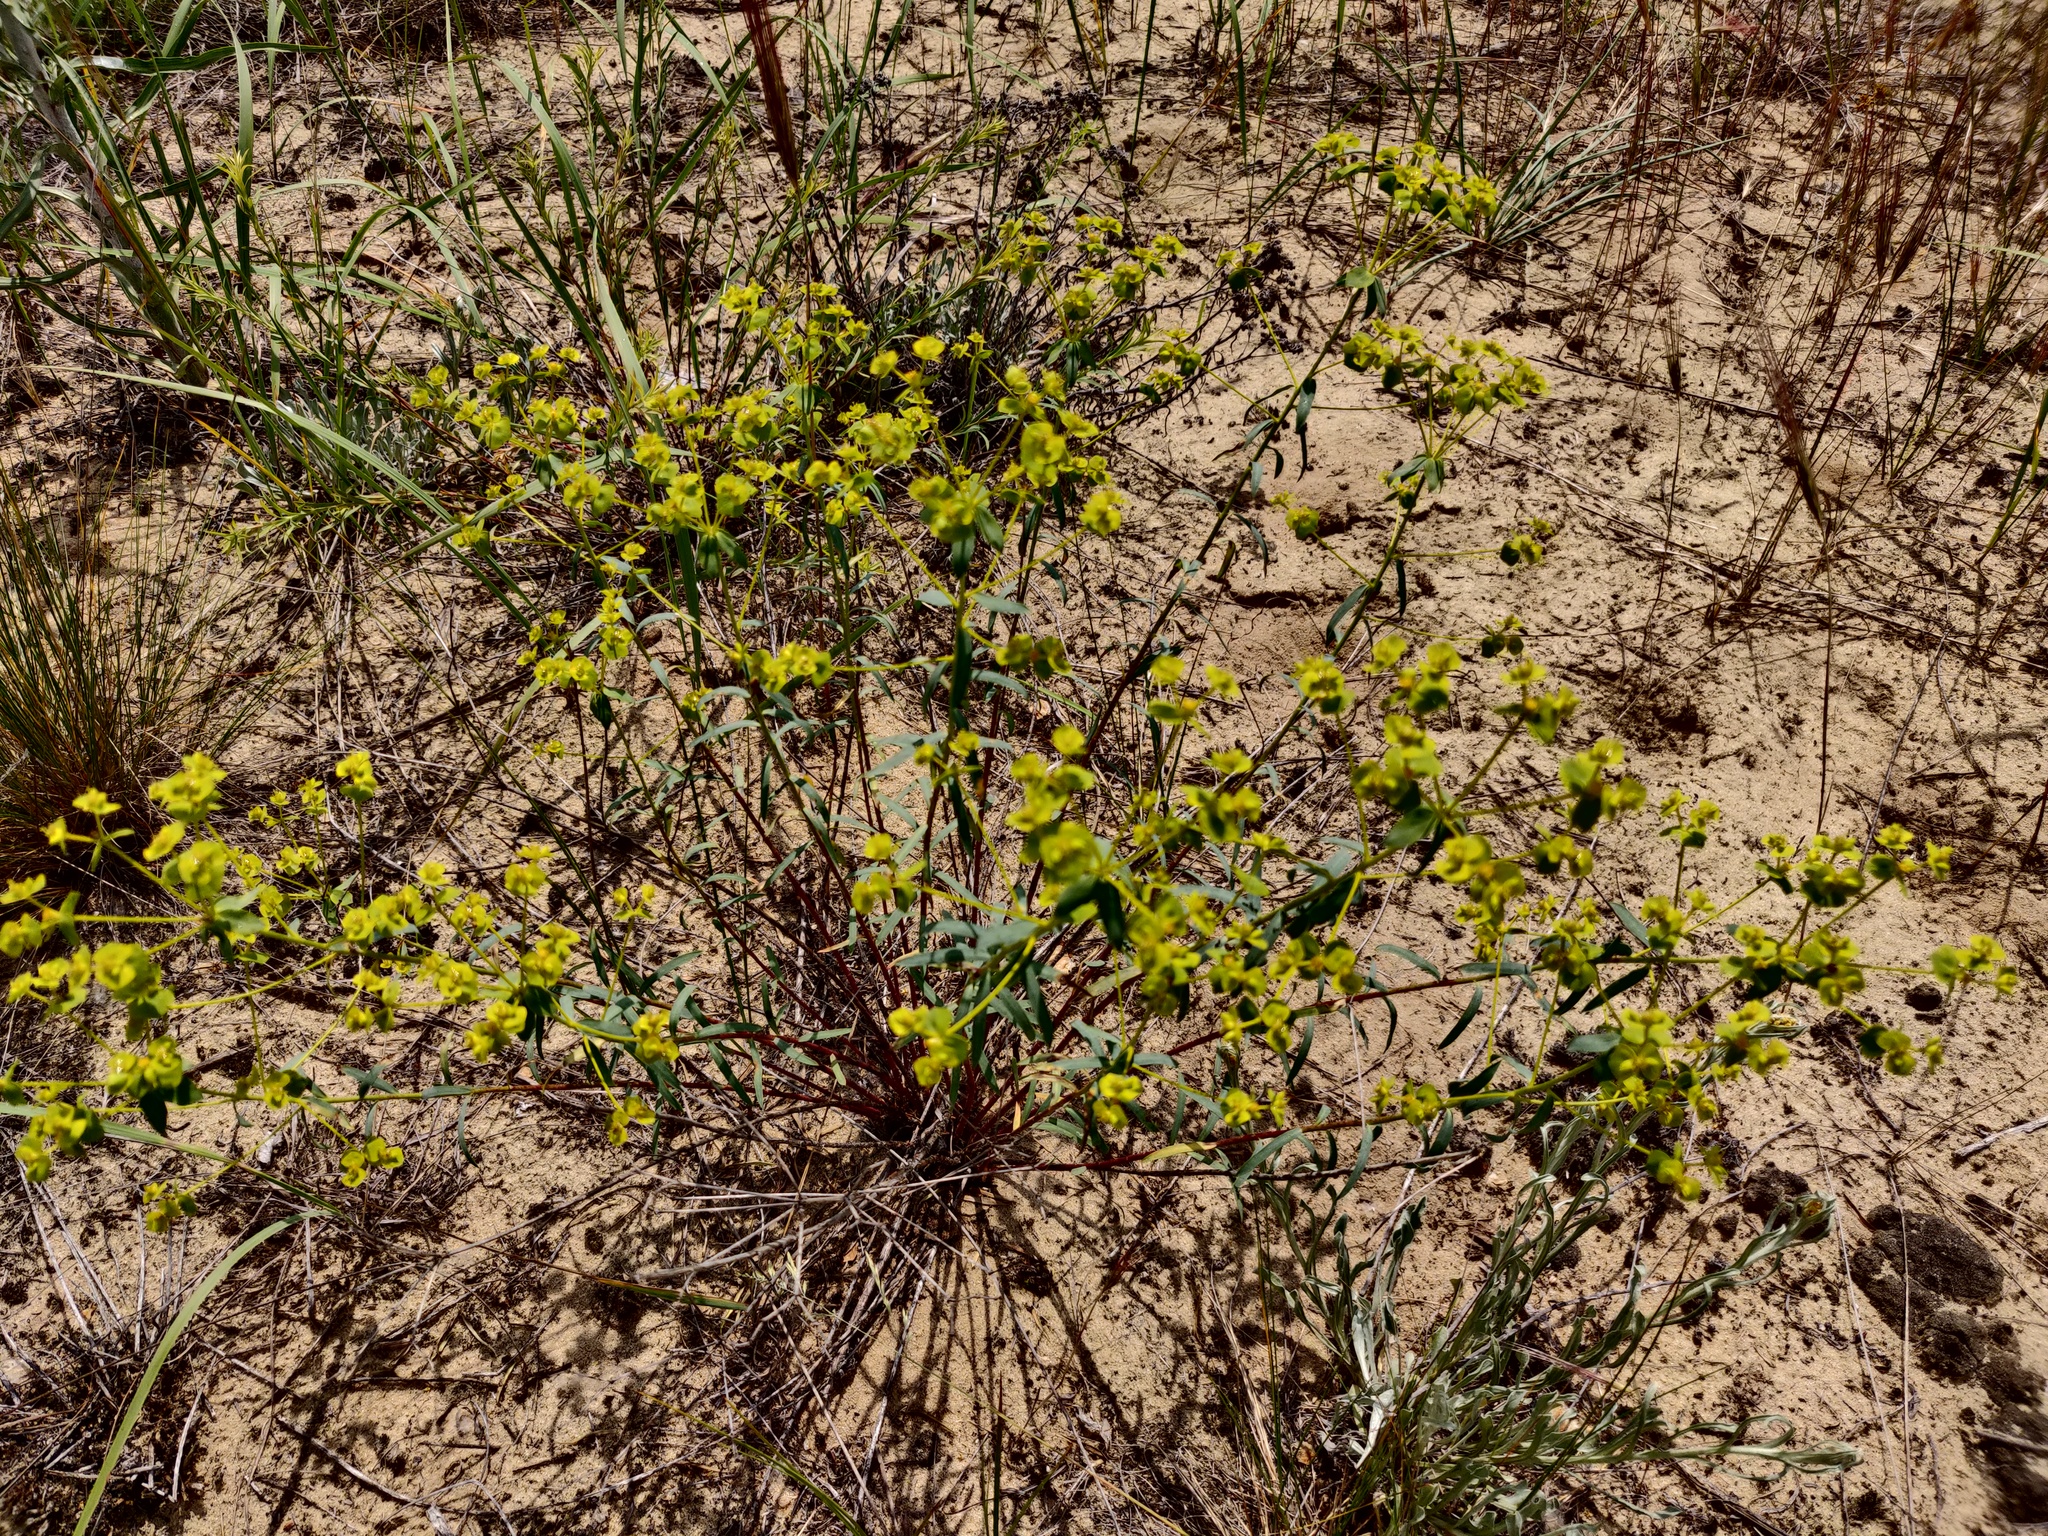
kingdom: Plantae
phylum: Tracheophyta
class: Magnoliopsida
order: Malpighiales
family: Euphorbiaceae
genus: Euphorbia
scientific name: Euphorbia seguieriana
